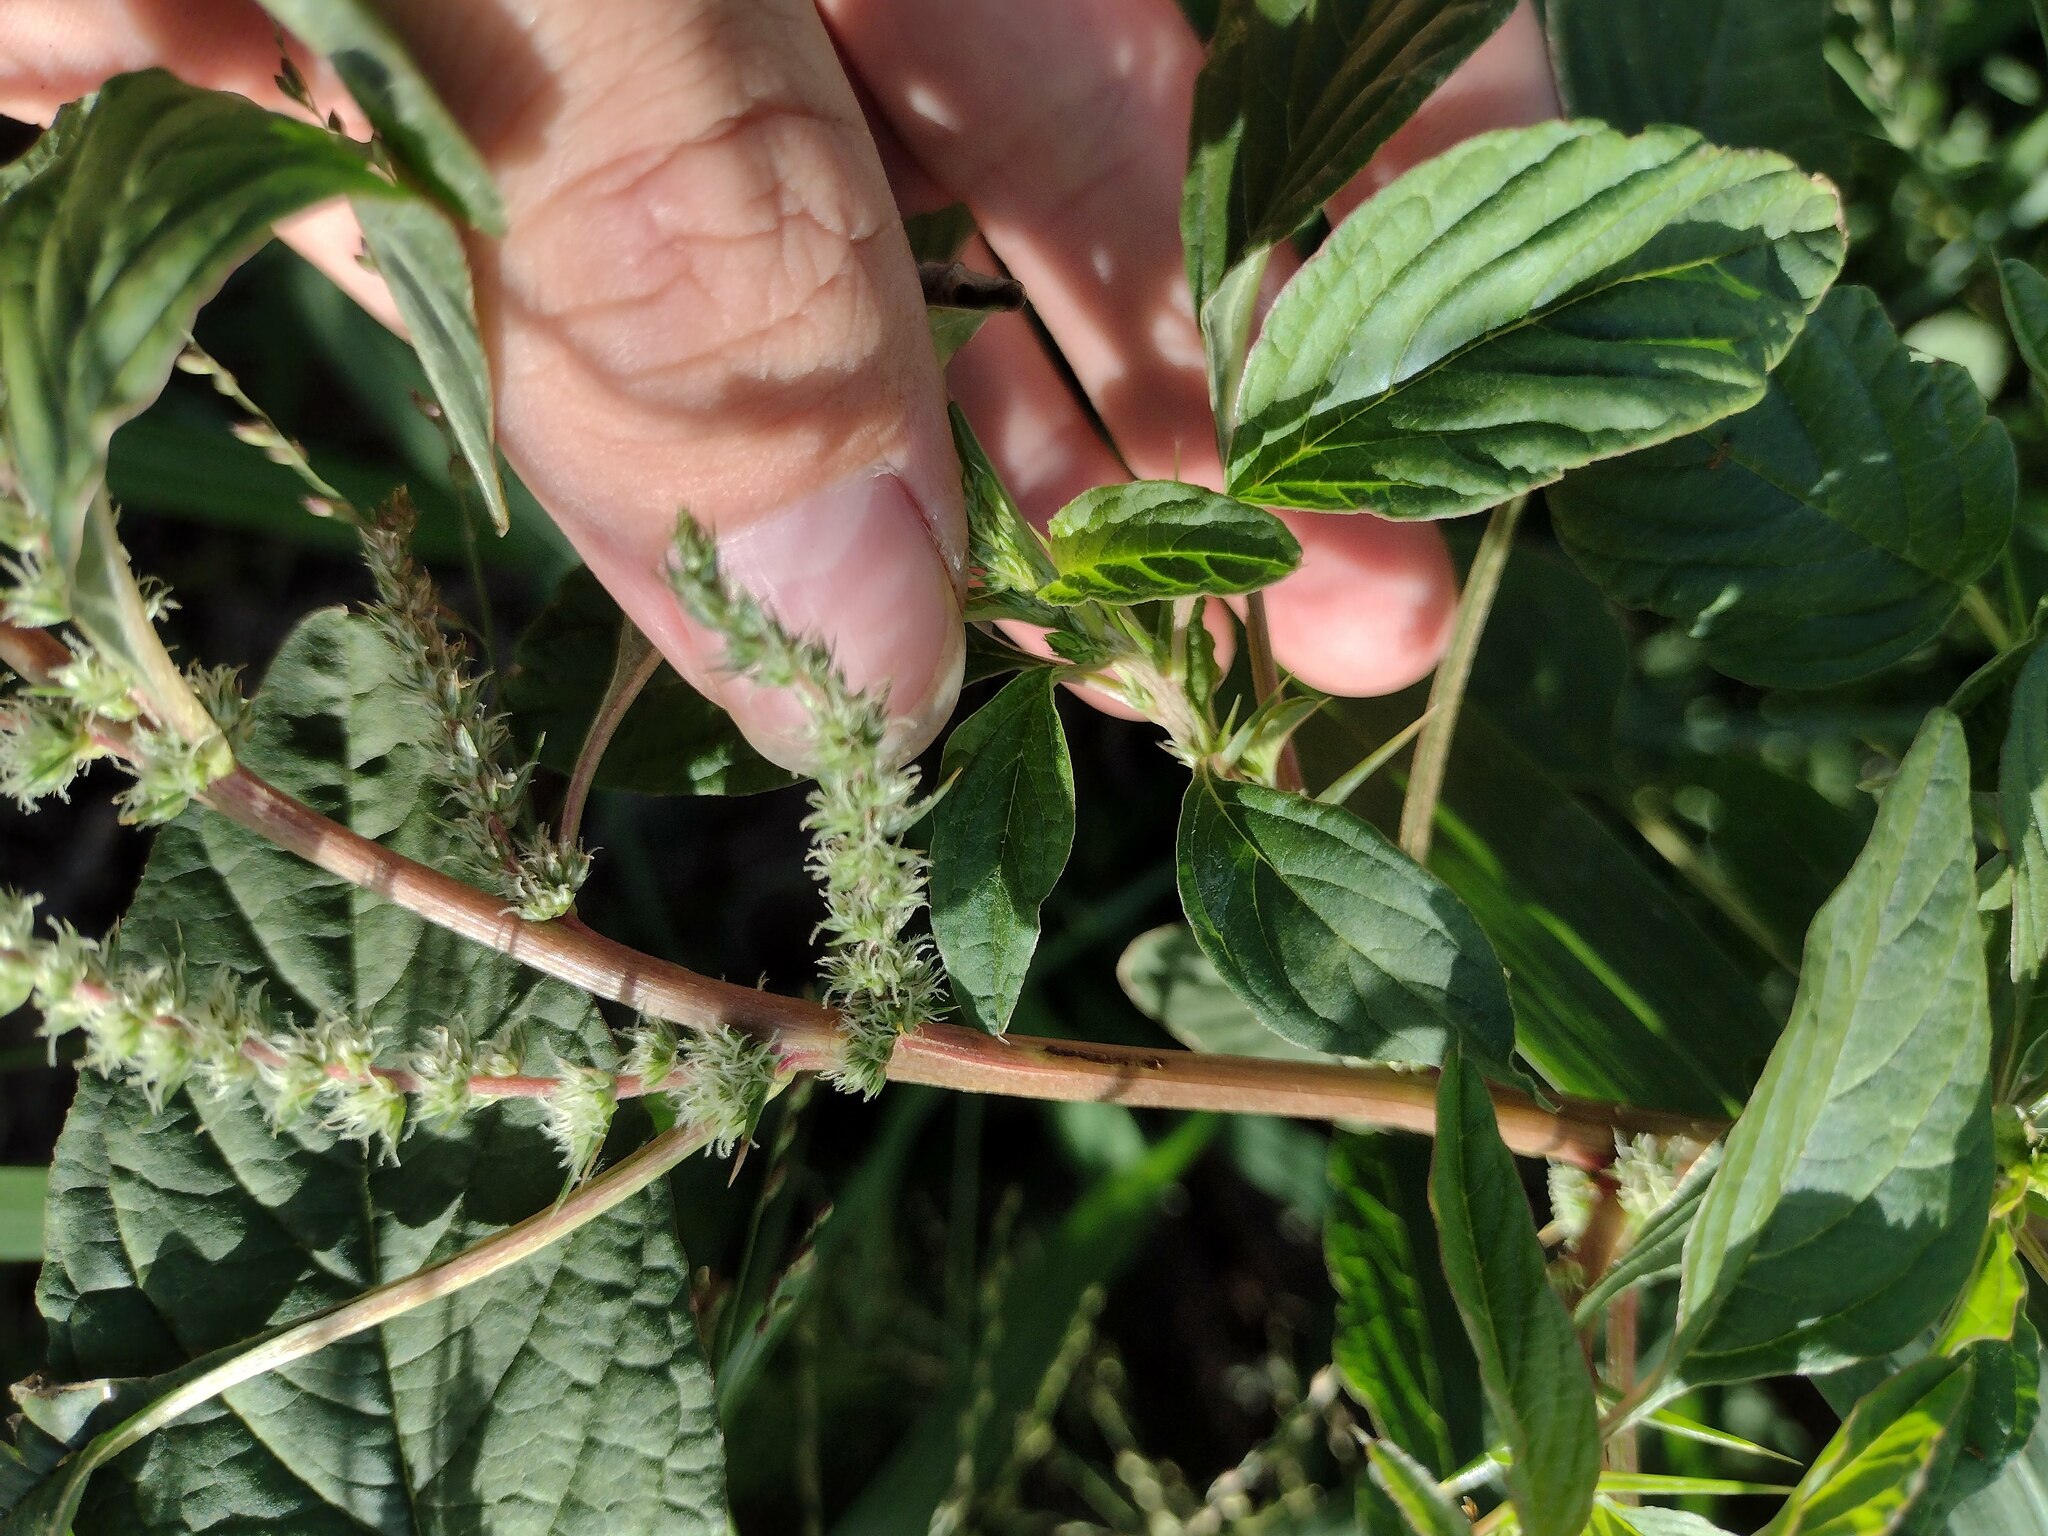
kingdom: Plantae
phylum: Tracheophyta
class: Magnoliopsida
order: Caryophyllales
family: Amaranthaceae
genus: Amaranthus
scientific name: Amaranthus spinosus
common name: Spiny amaranth
